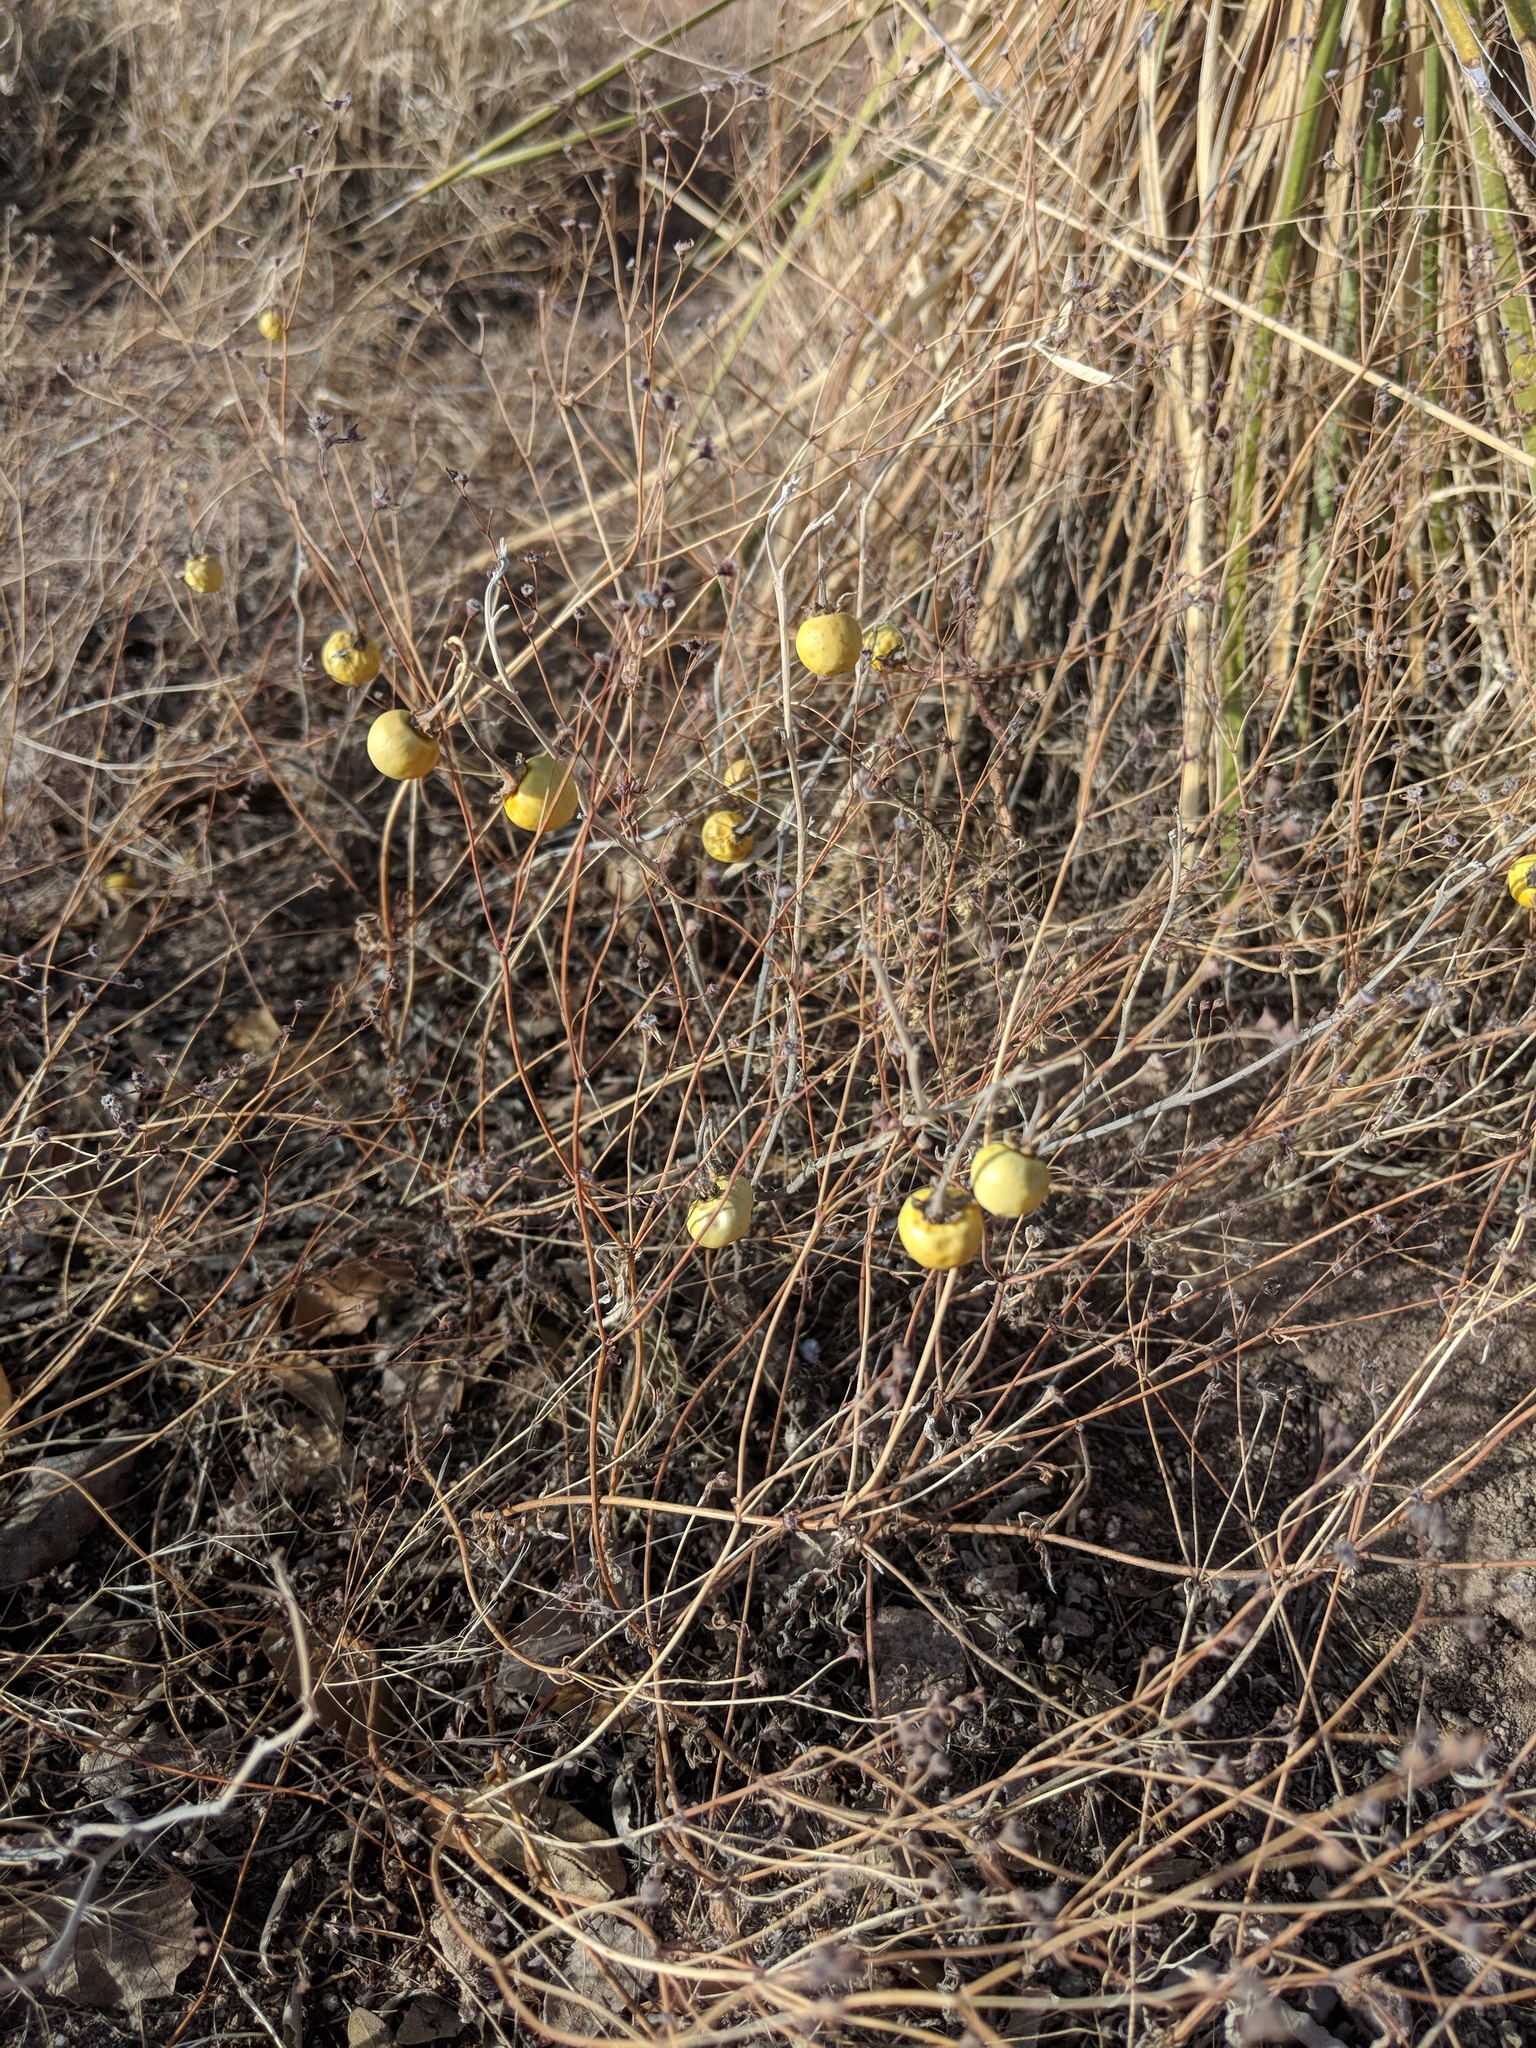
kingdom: Plantae
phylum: Tracheophyta
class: Magnoliopsida
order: Solanales
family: Solanaceae
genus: Solanum
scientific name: Solanum elaeagnifolium
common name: Silverleaf nightshade
